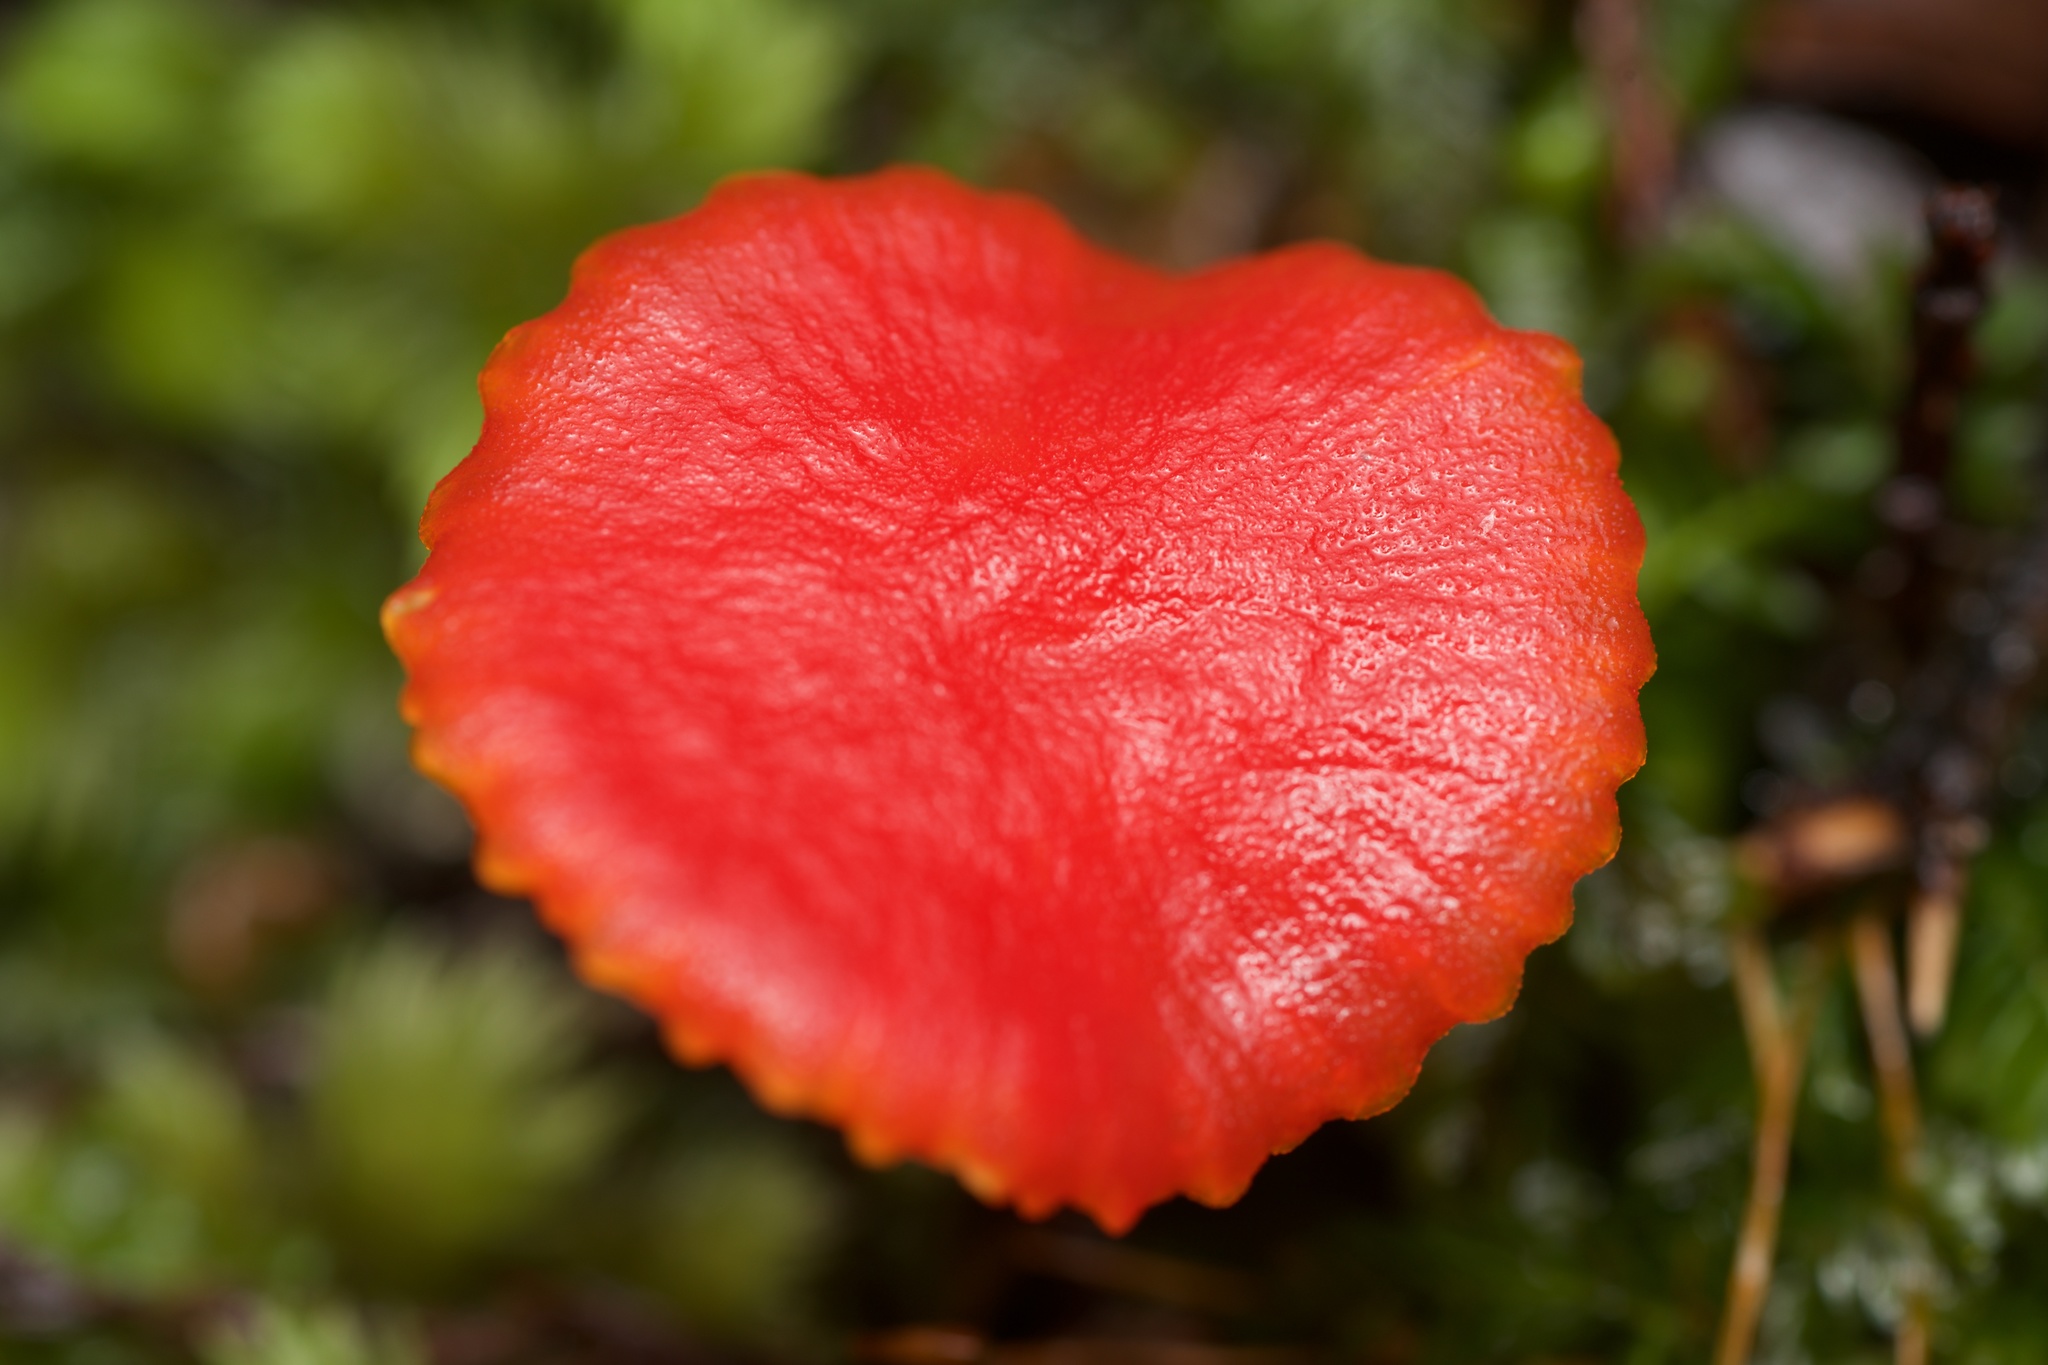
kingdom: Fungi
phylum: Basidiomycota
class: Agaricomycetes
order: Agaricales
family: Hygrophoraceae
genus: Hygrocybe
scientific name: Hygrocybe
